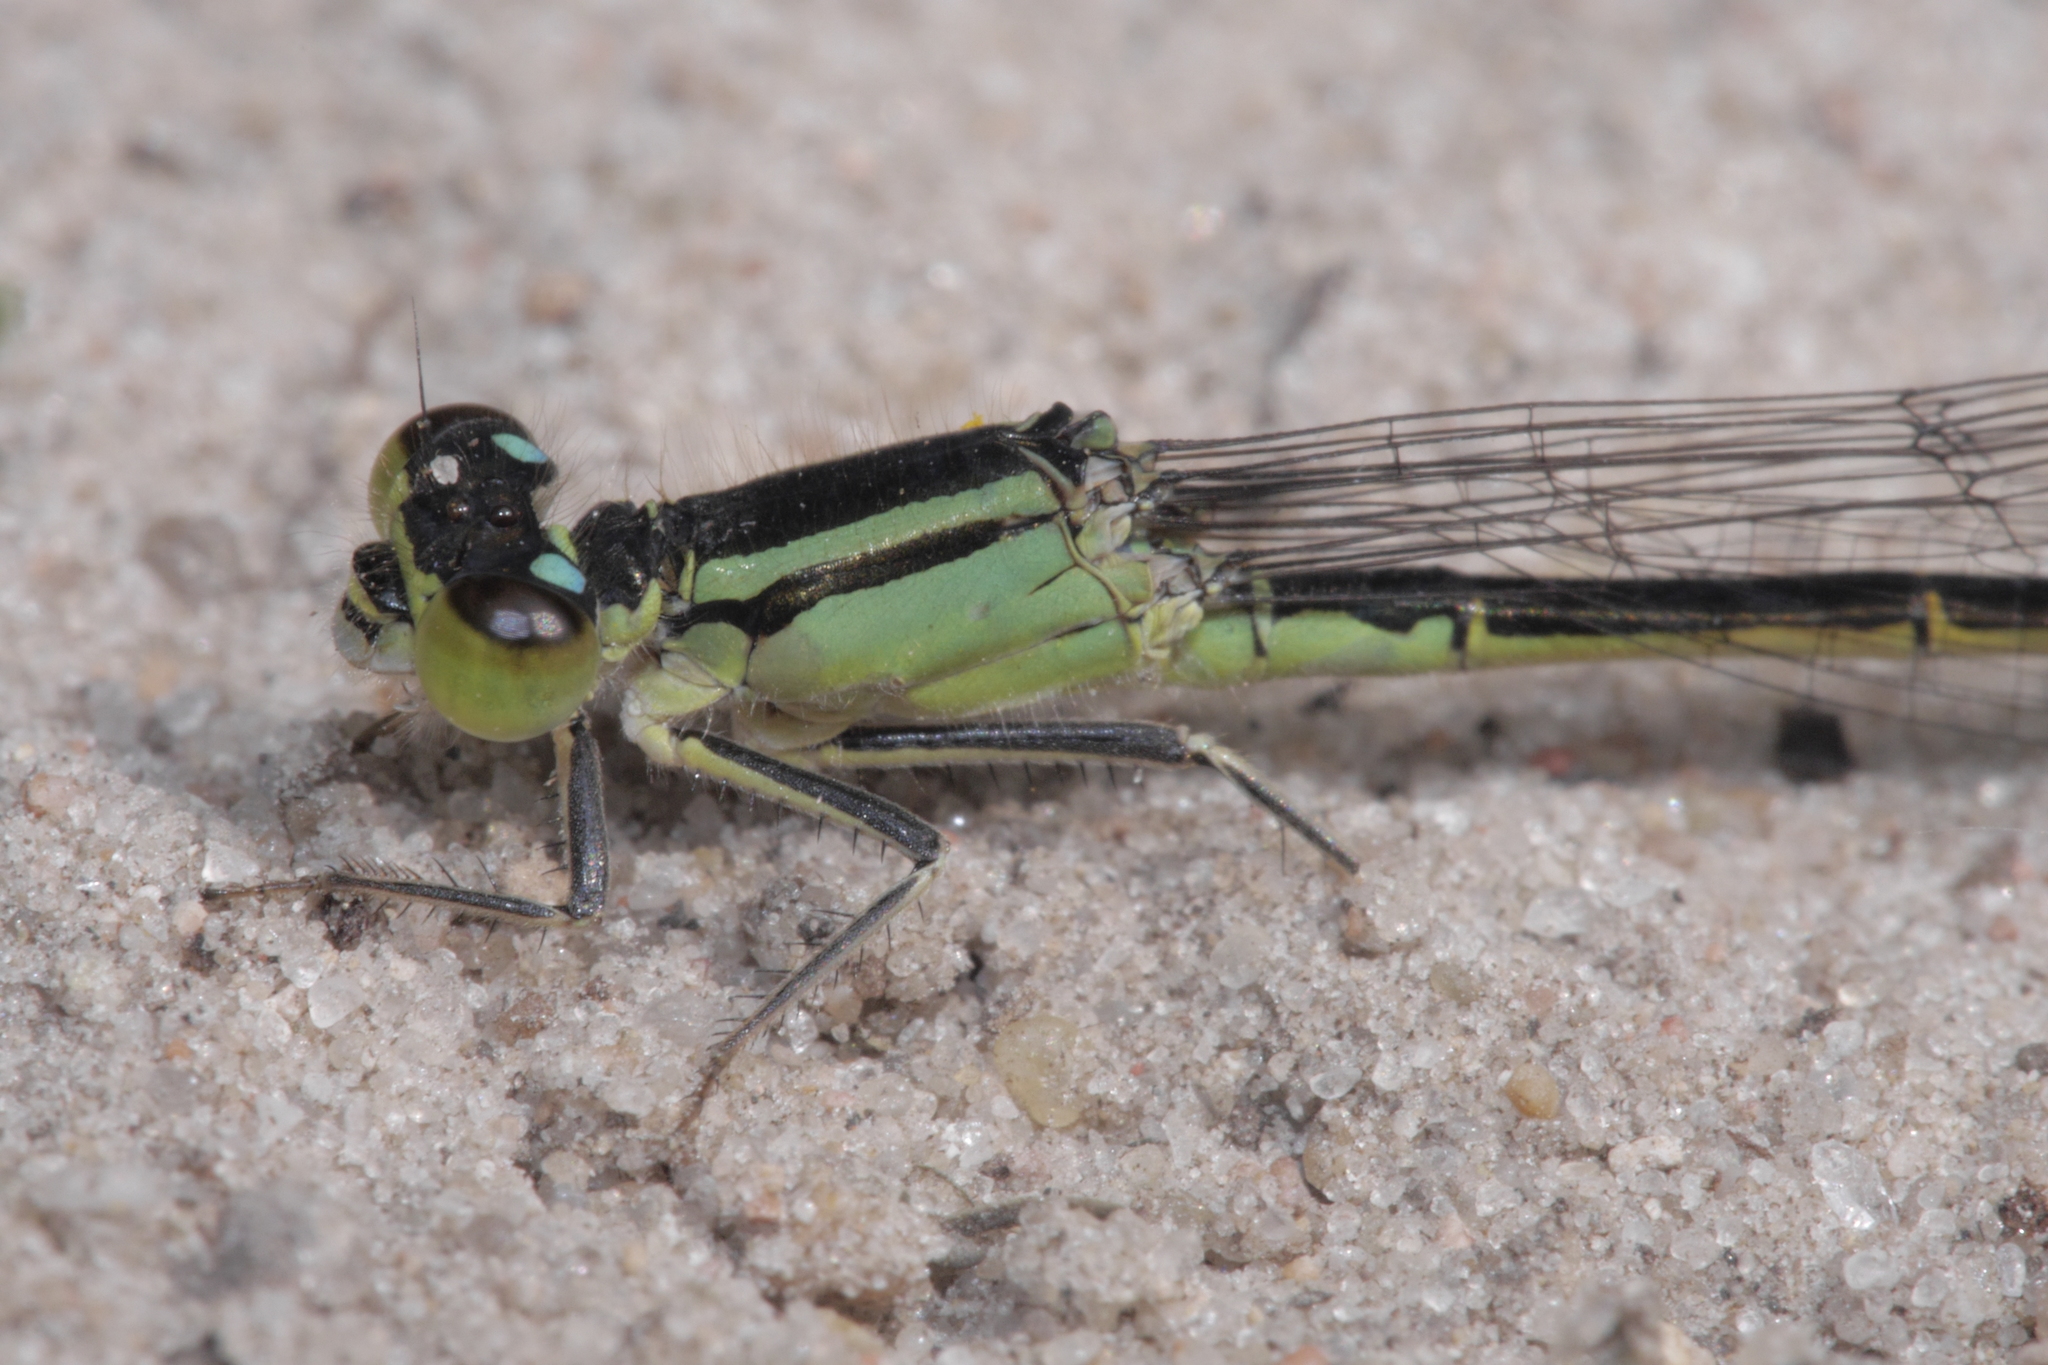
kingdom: Animalia
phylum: Arthropoda
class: Insecta
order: Odonata
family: Coenagrionidae
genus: Ischnura
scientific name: Ischnura elegans
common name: Blue-tailed damselfly
